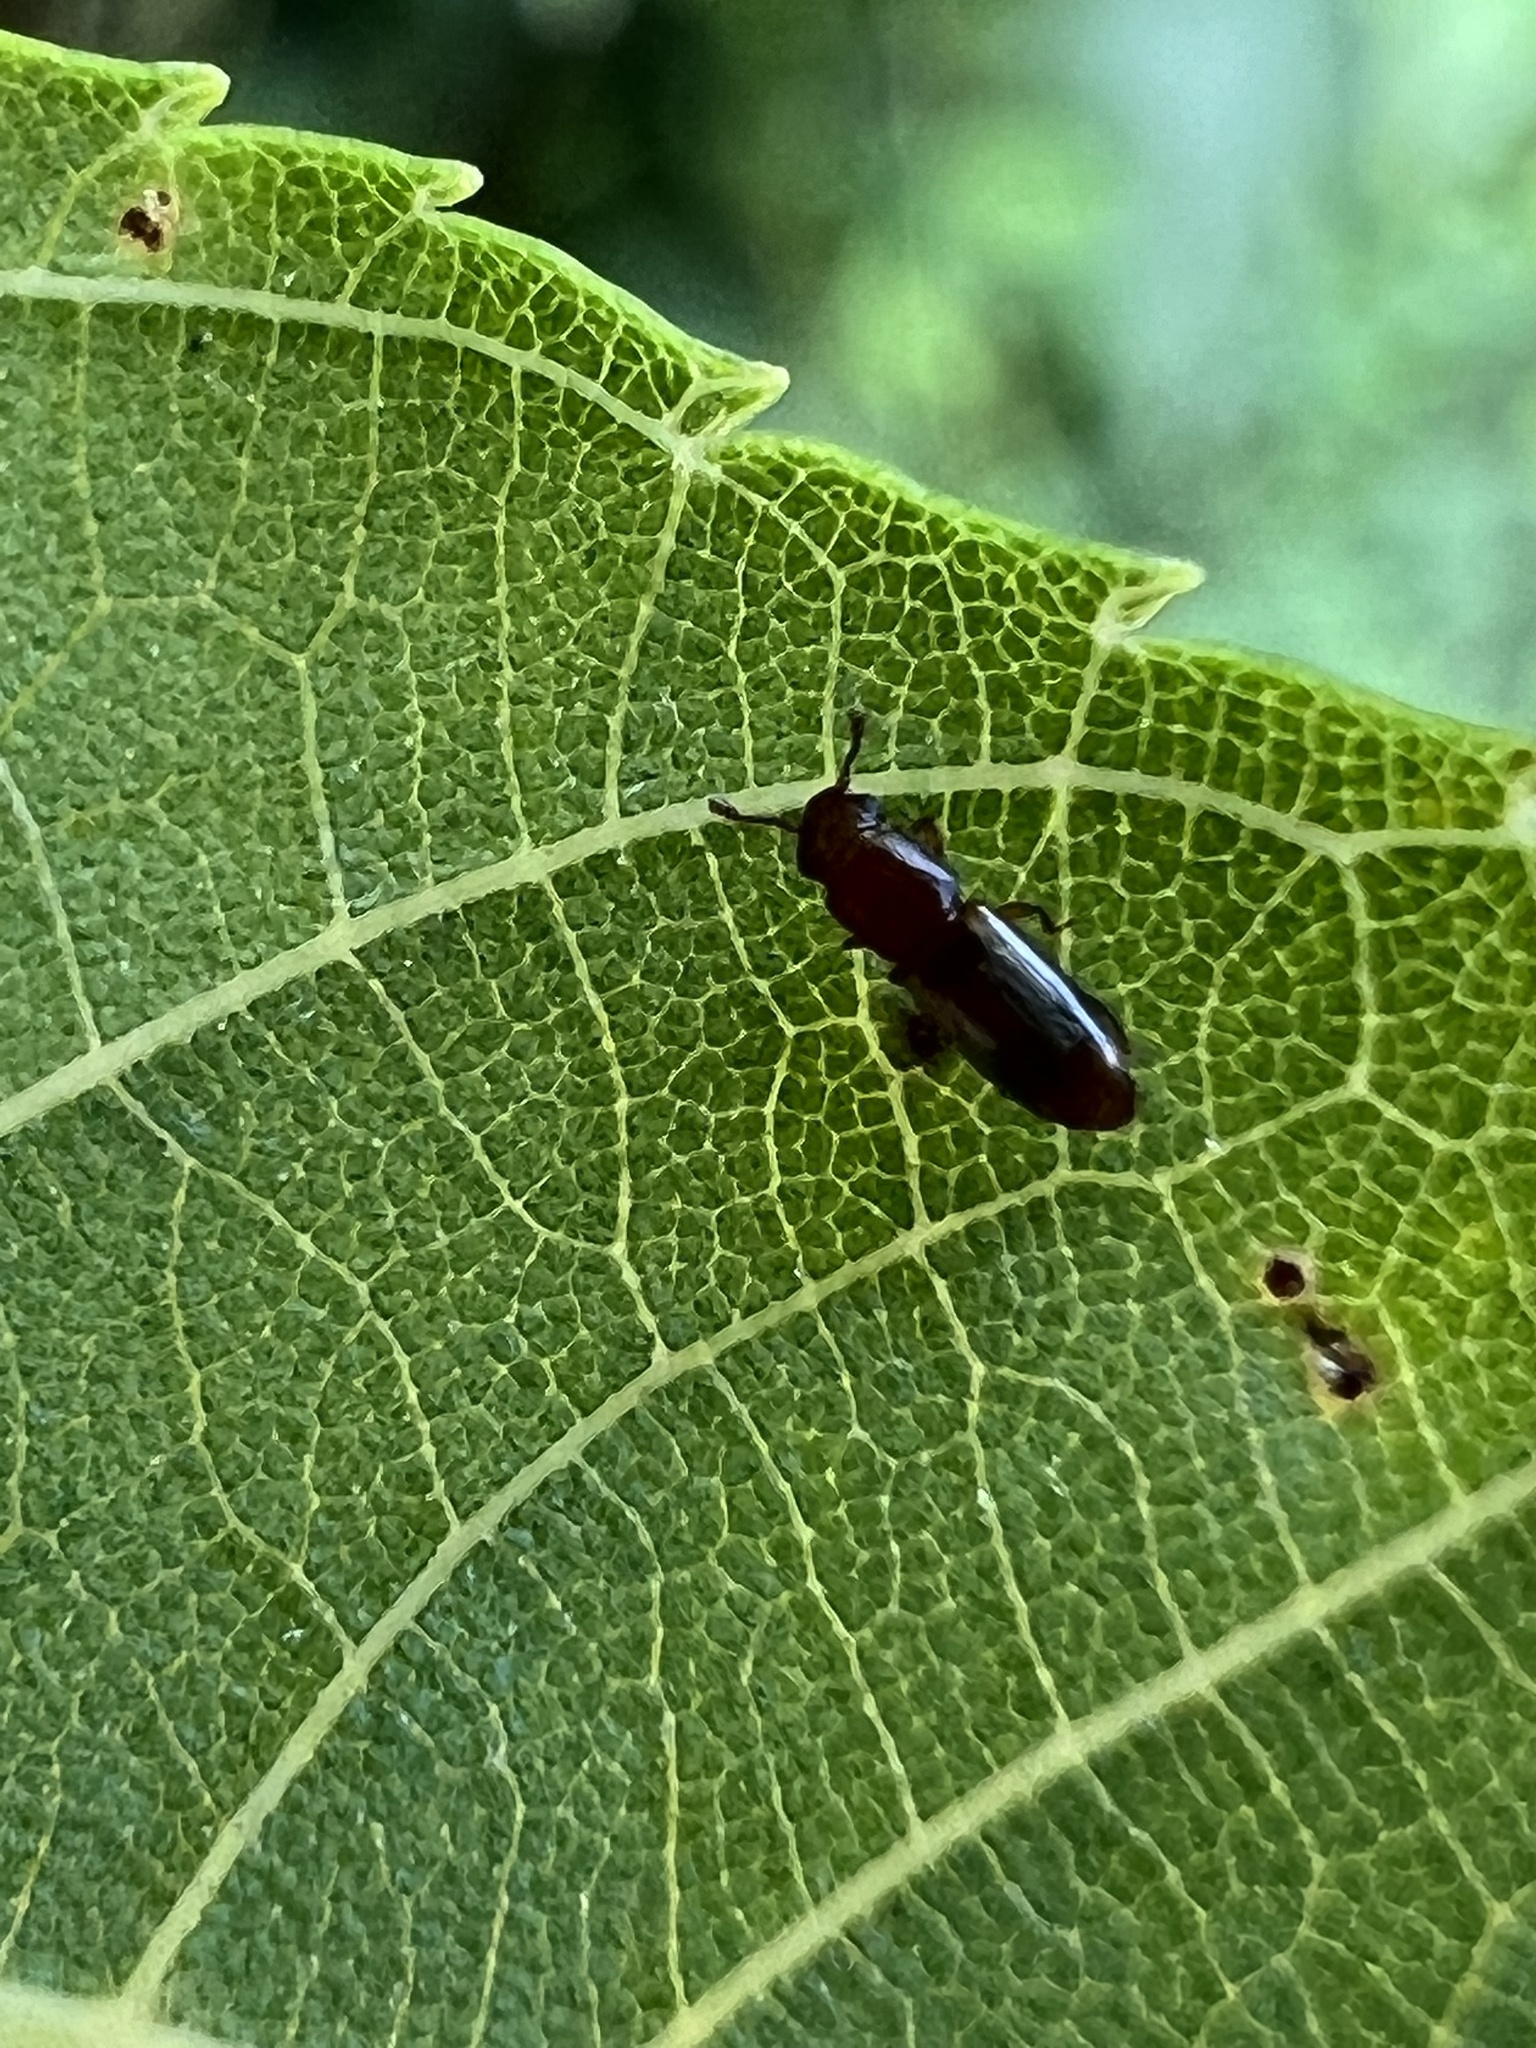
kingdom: Animalia
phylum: Arthropoda
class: Insecta
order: Coleoptera
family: Monotomidae
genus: Europs
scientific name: Europs pallipennis
